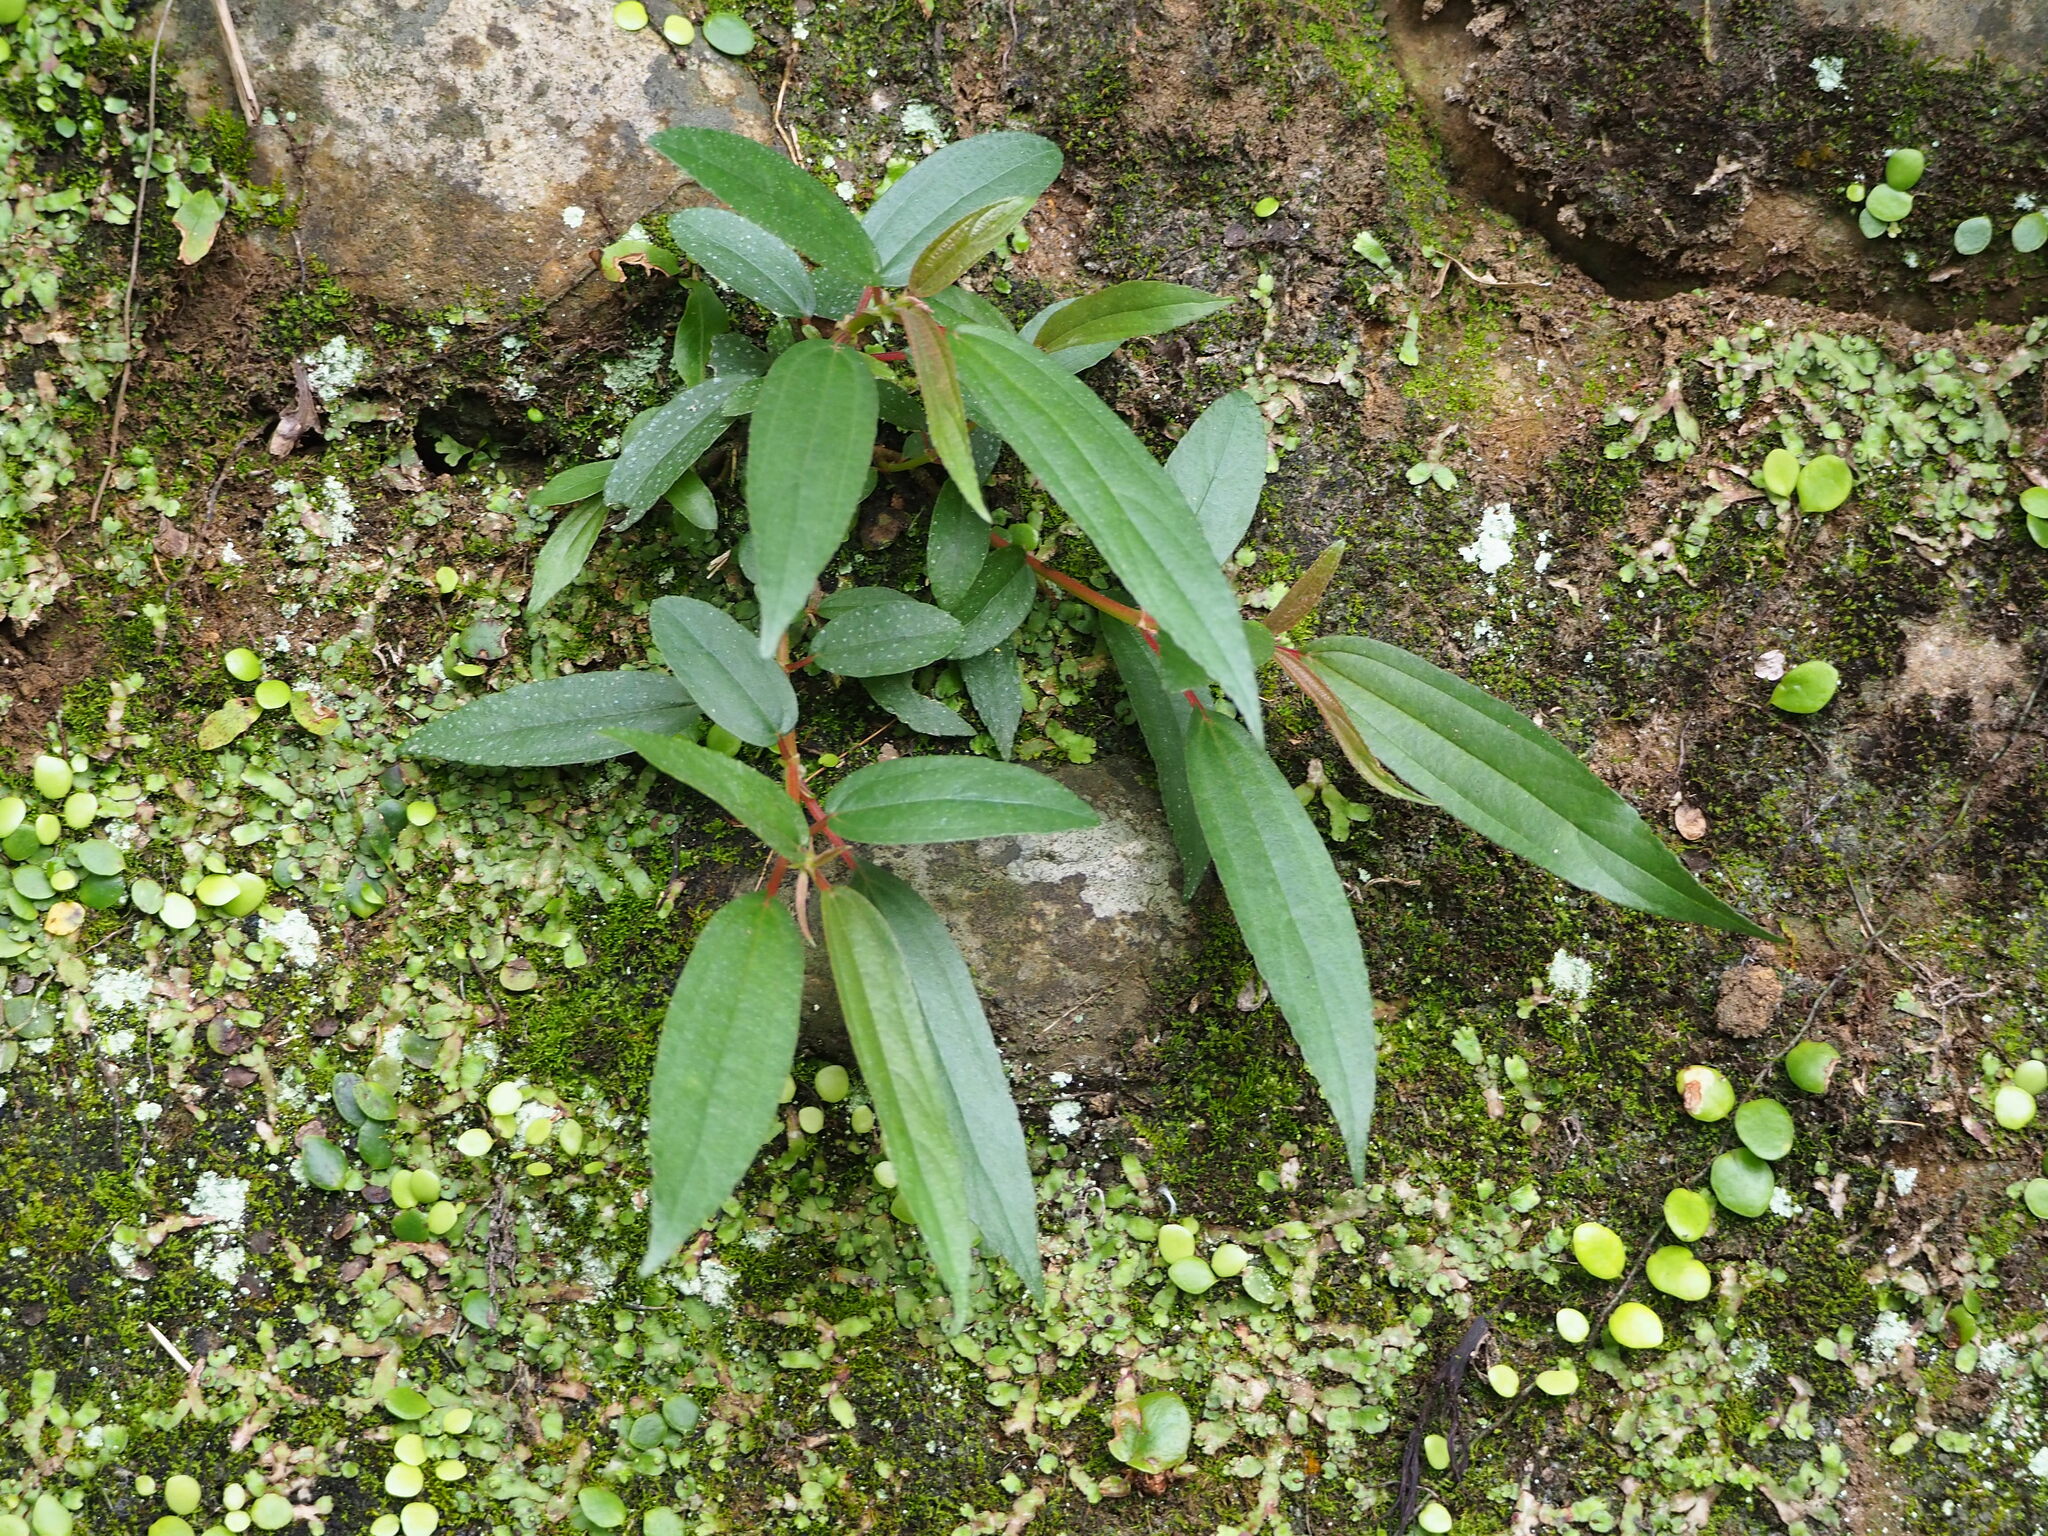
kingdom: Plantae
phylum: Tracheophyta
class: Magnoliopsida
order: Rosales
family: Urticaceae
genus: Boehmeria
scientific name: Boehmeria densiflora
